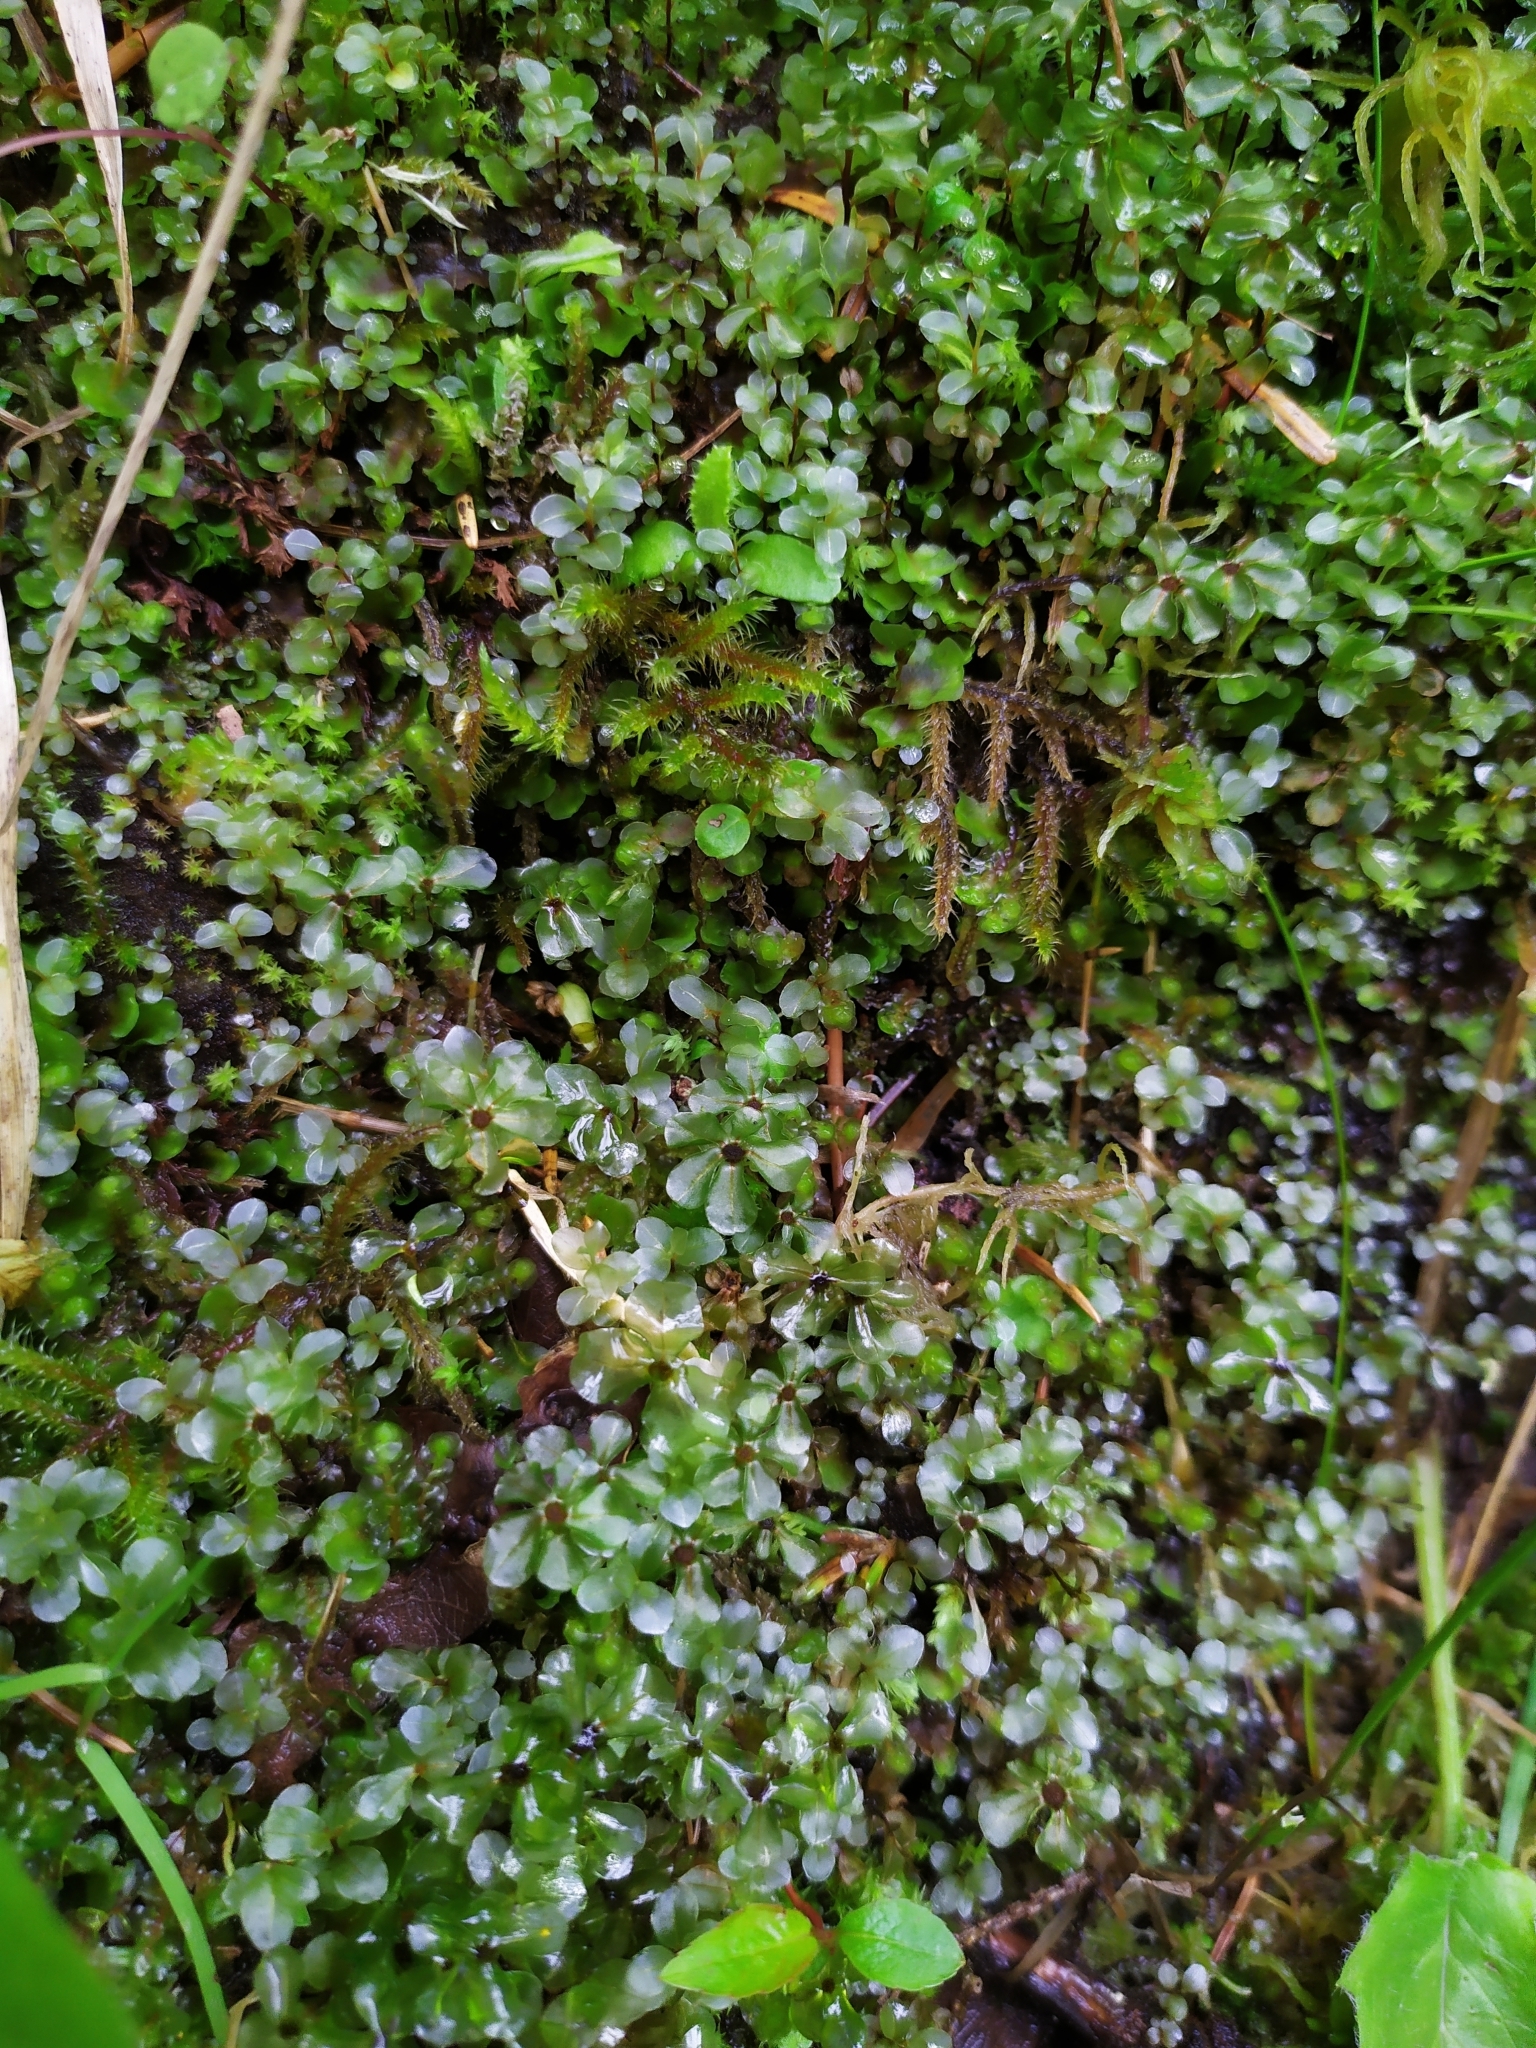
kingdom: Plantae
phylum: Bryophyta
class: Bryopsida
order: Bryales
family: Mniaceae
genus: Rhizomnium
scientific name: Rhizomnium punctatum
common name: Dotted leafy moss
